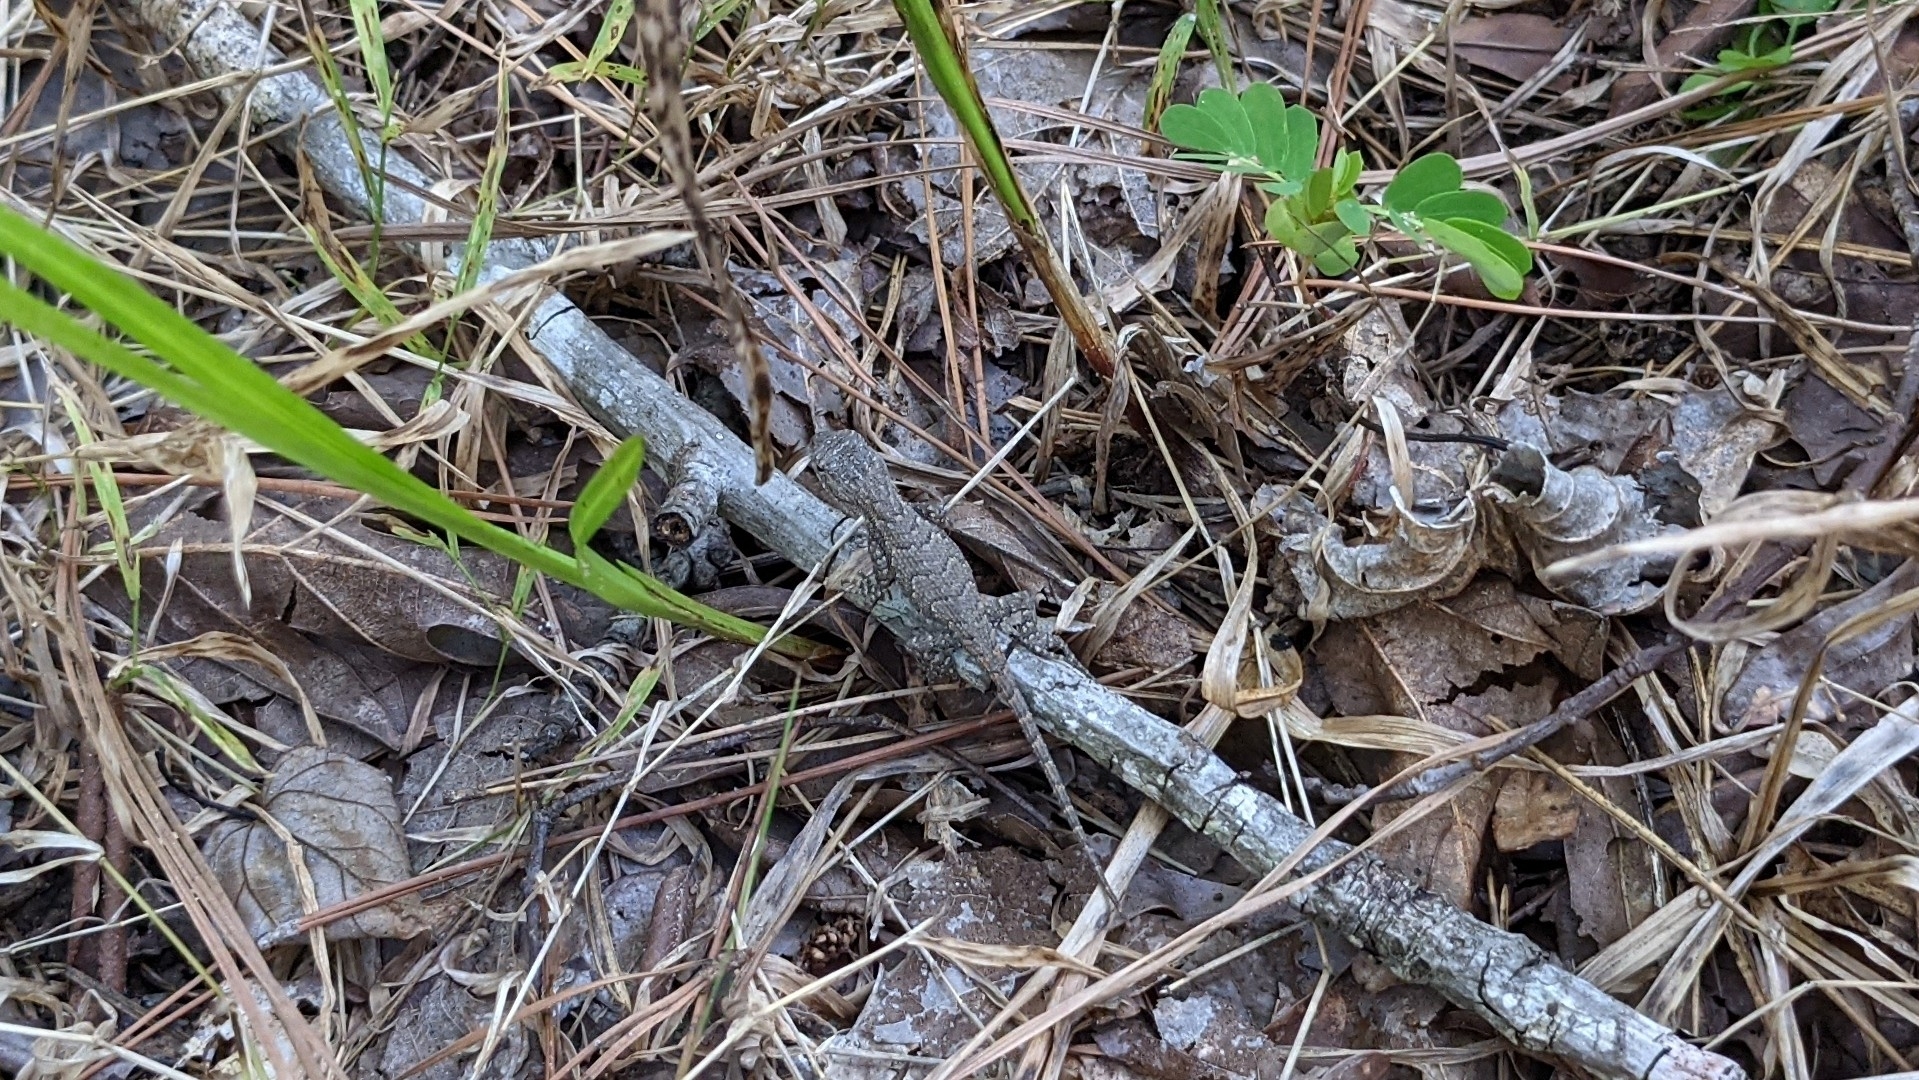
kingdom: Animalia
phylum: Chordata
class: Squamata
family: Phrynosomatidae
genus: Sceloporus
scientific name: Sceloporus consobrinus
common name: Southern prairie lizard
